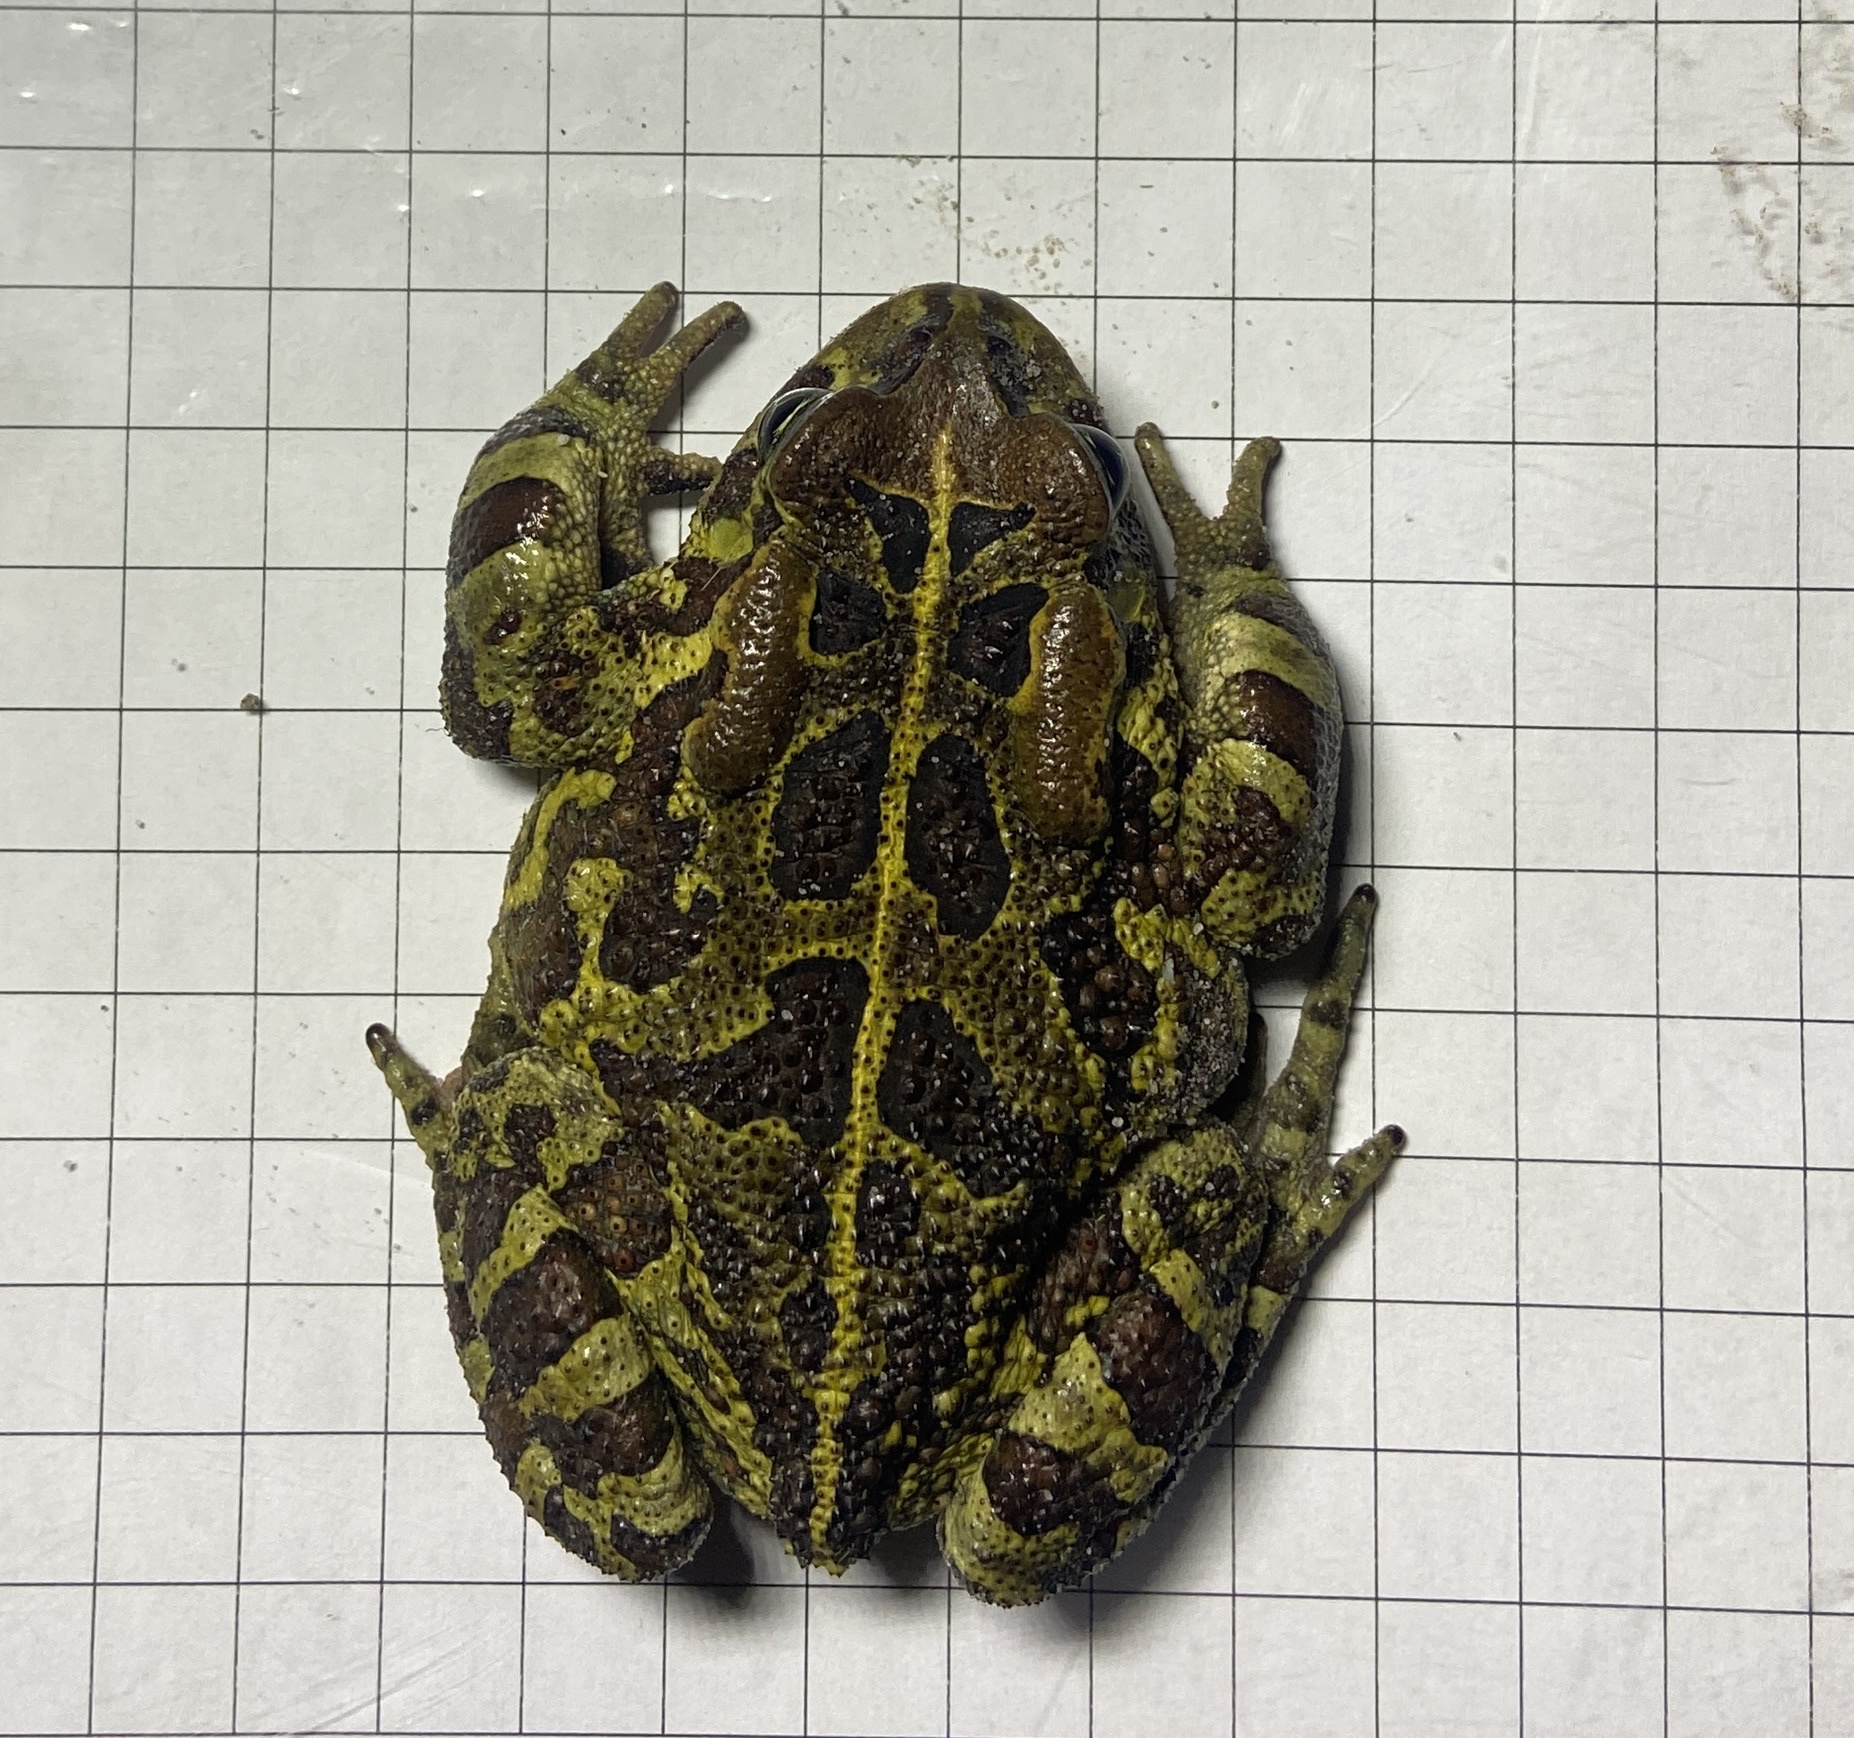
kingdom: Animalia
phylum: Chordata
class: Amphibia
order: Anura
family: Bufonidae
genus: Sclerophrys
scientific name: Sclerophrys pantherina
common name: Panther toad
